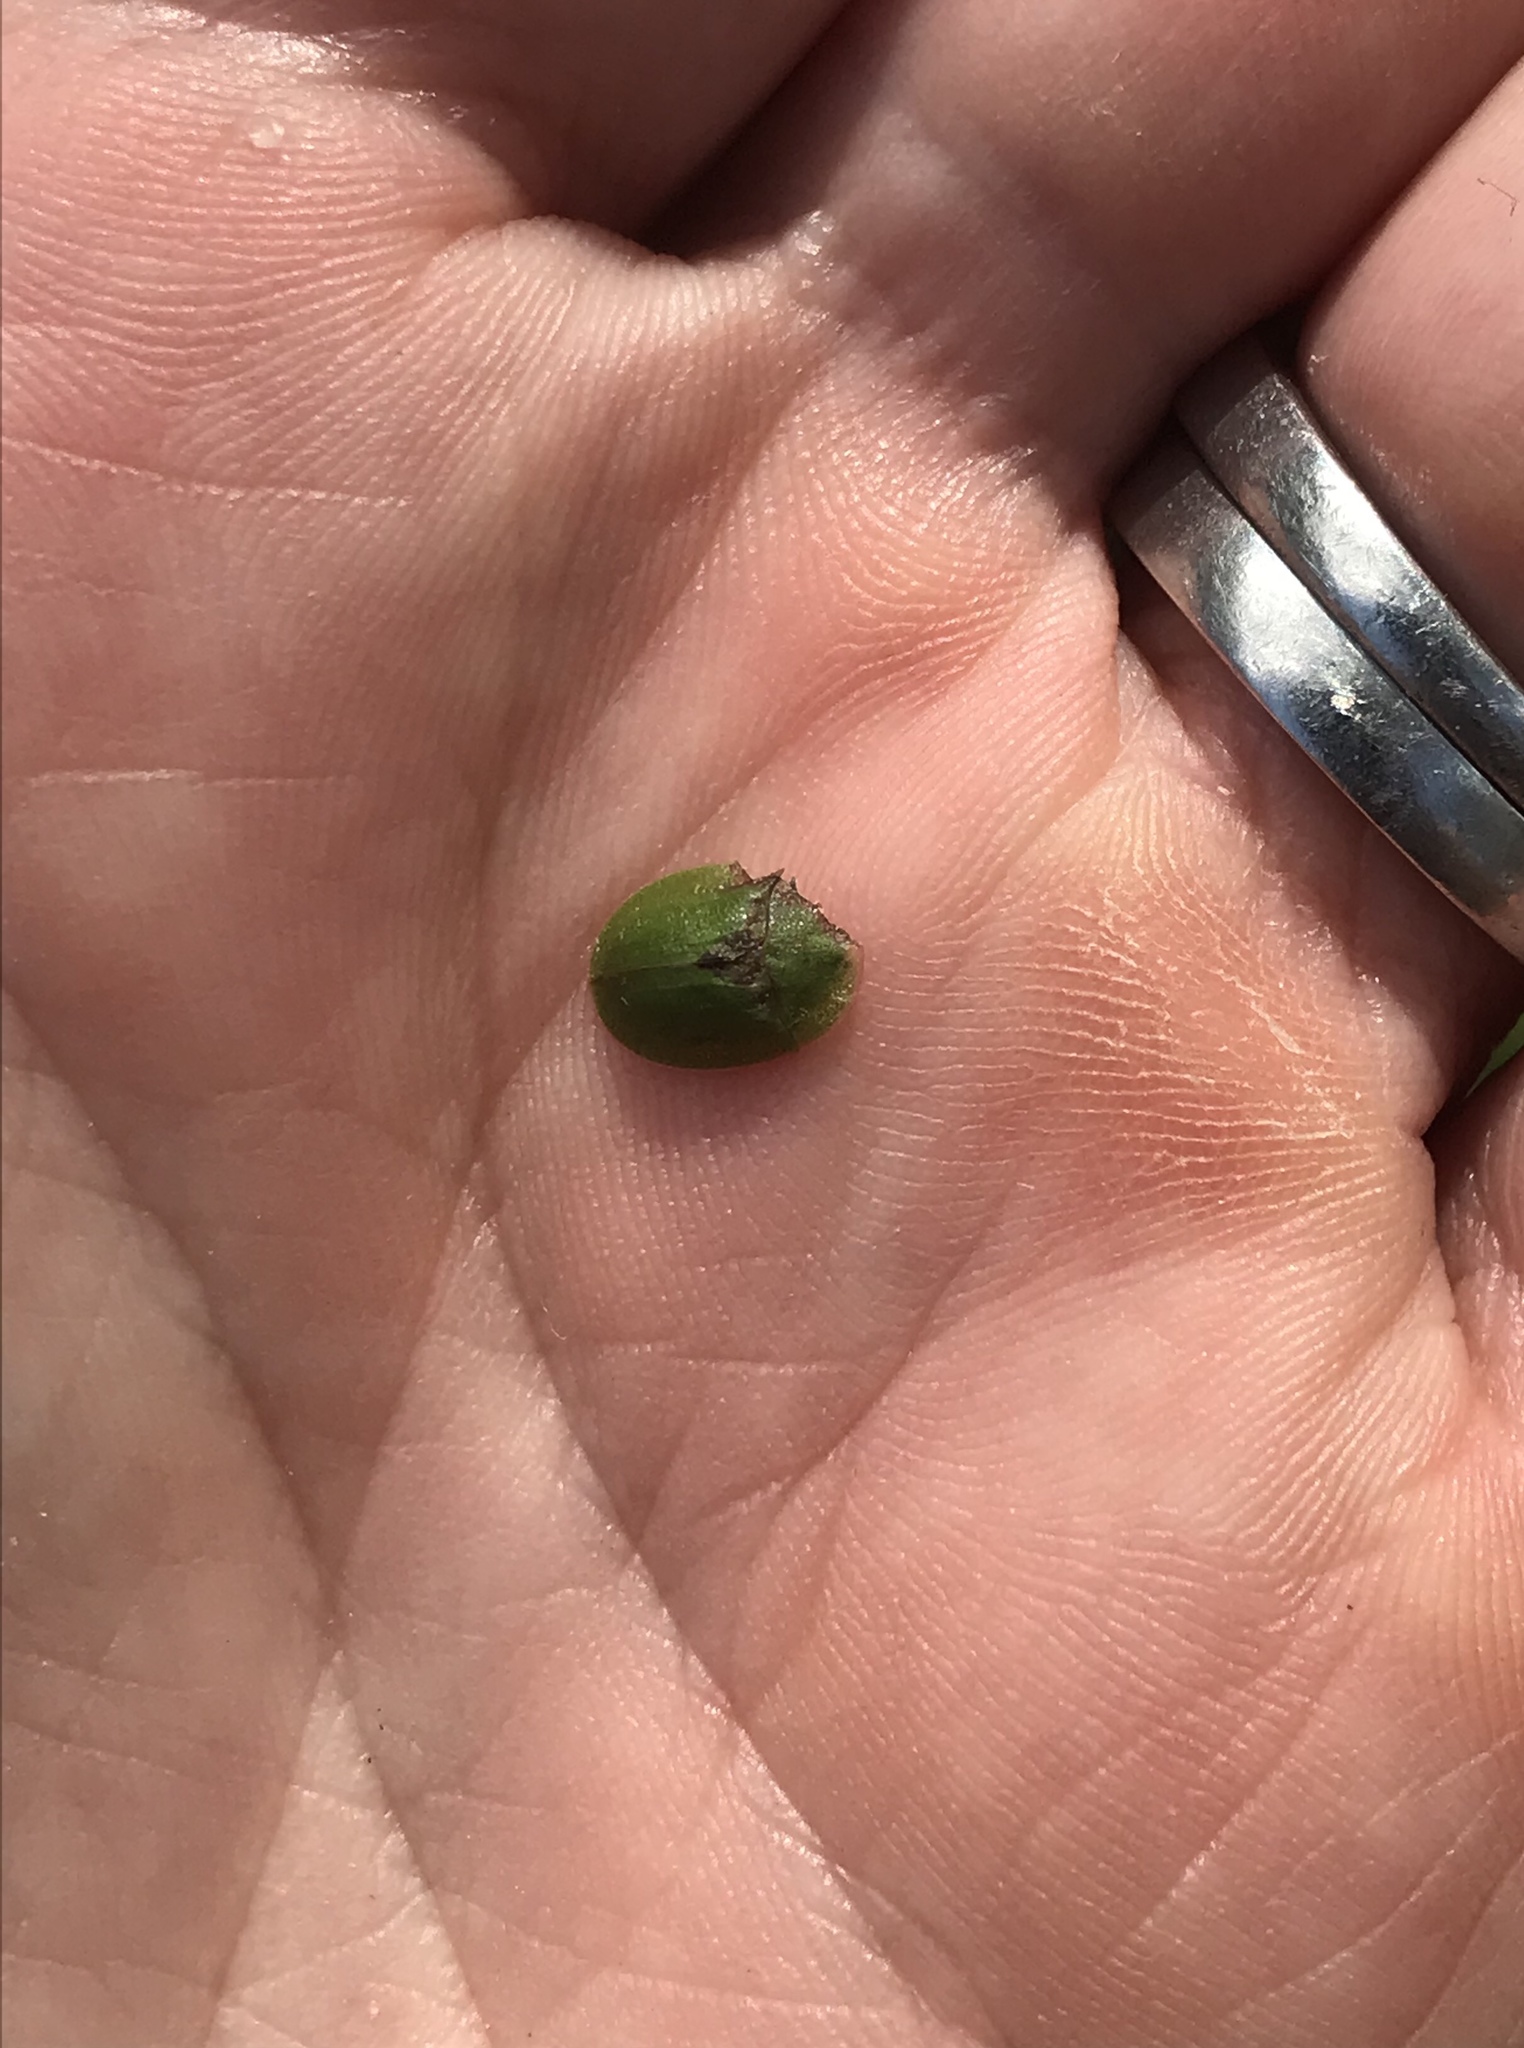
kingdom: Animalia
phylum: Arthropoda
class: Insecta
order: Coleoptera
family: Chrysomelidae
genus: Cassida
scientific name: Cassida rubiginosa
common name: Thistle tortoise beetle
